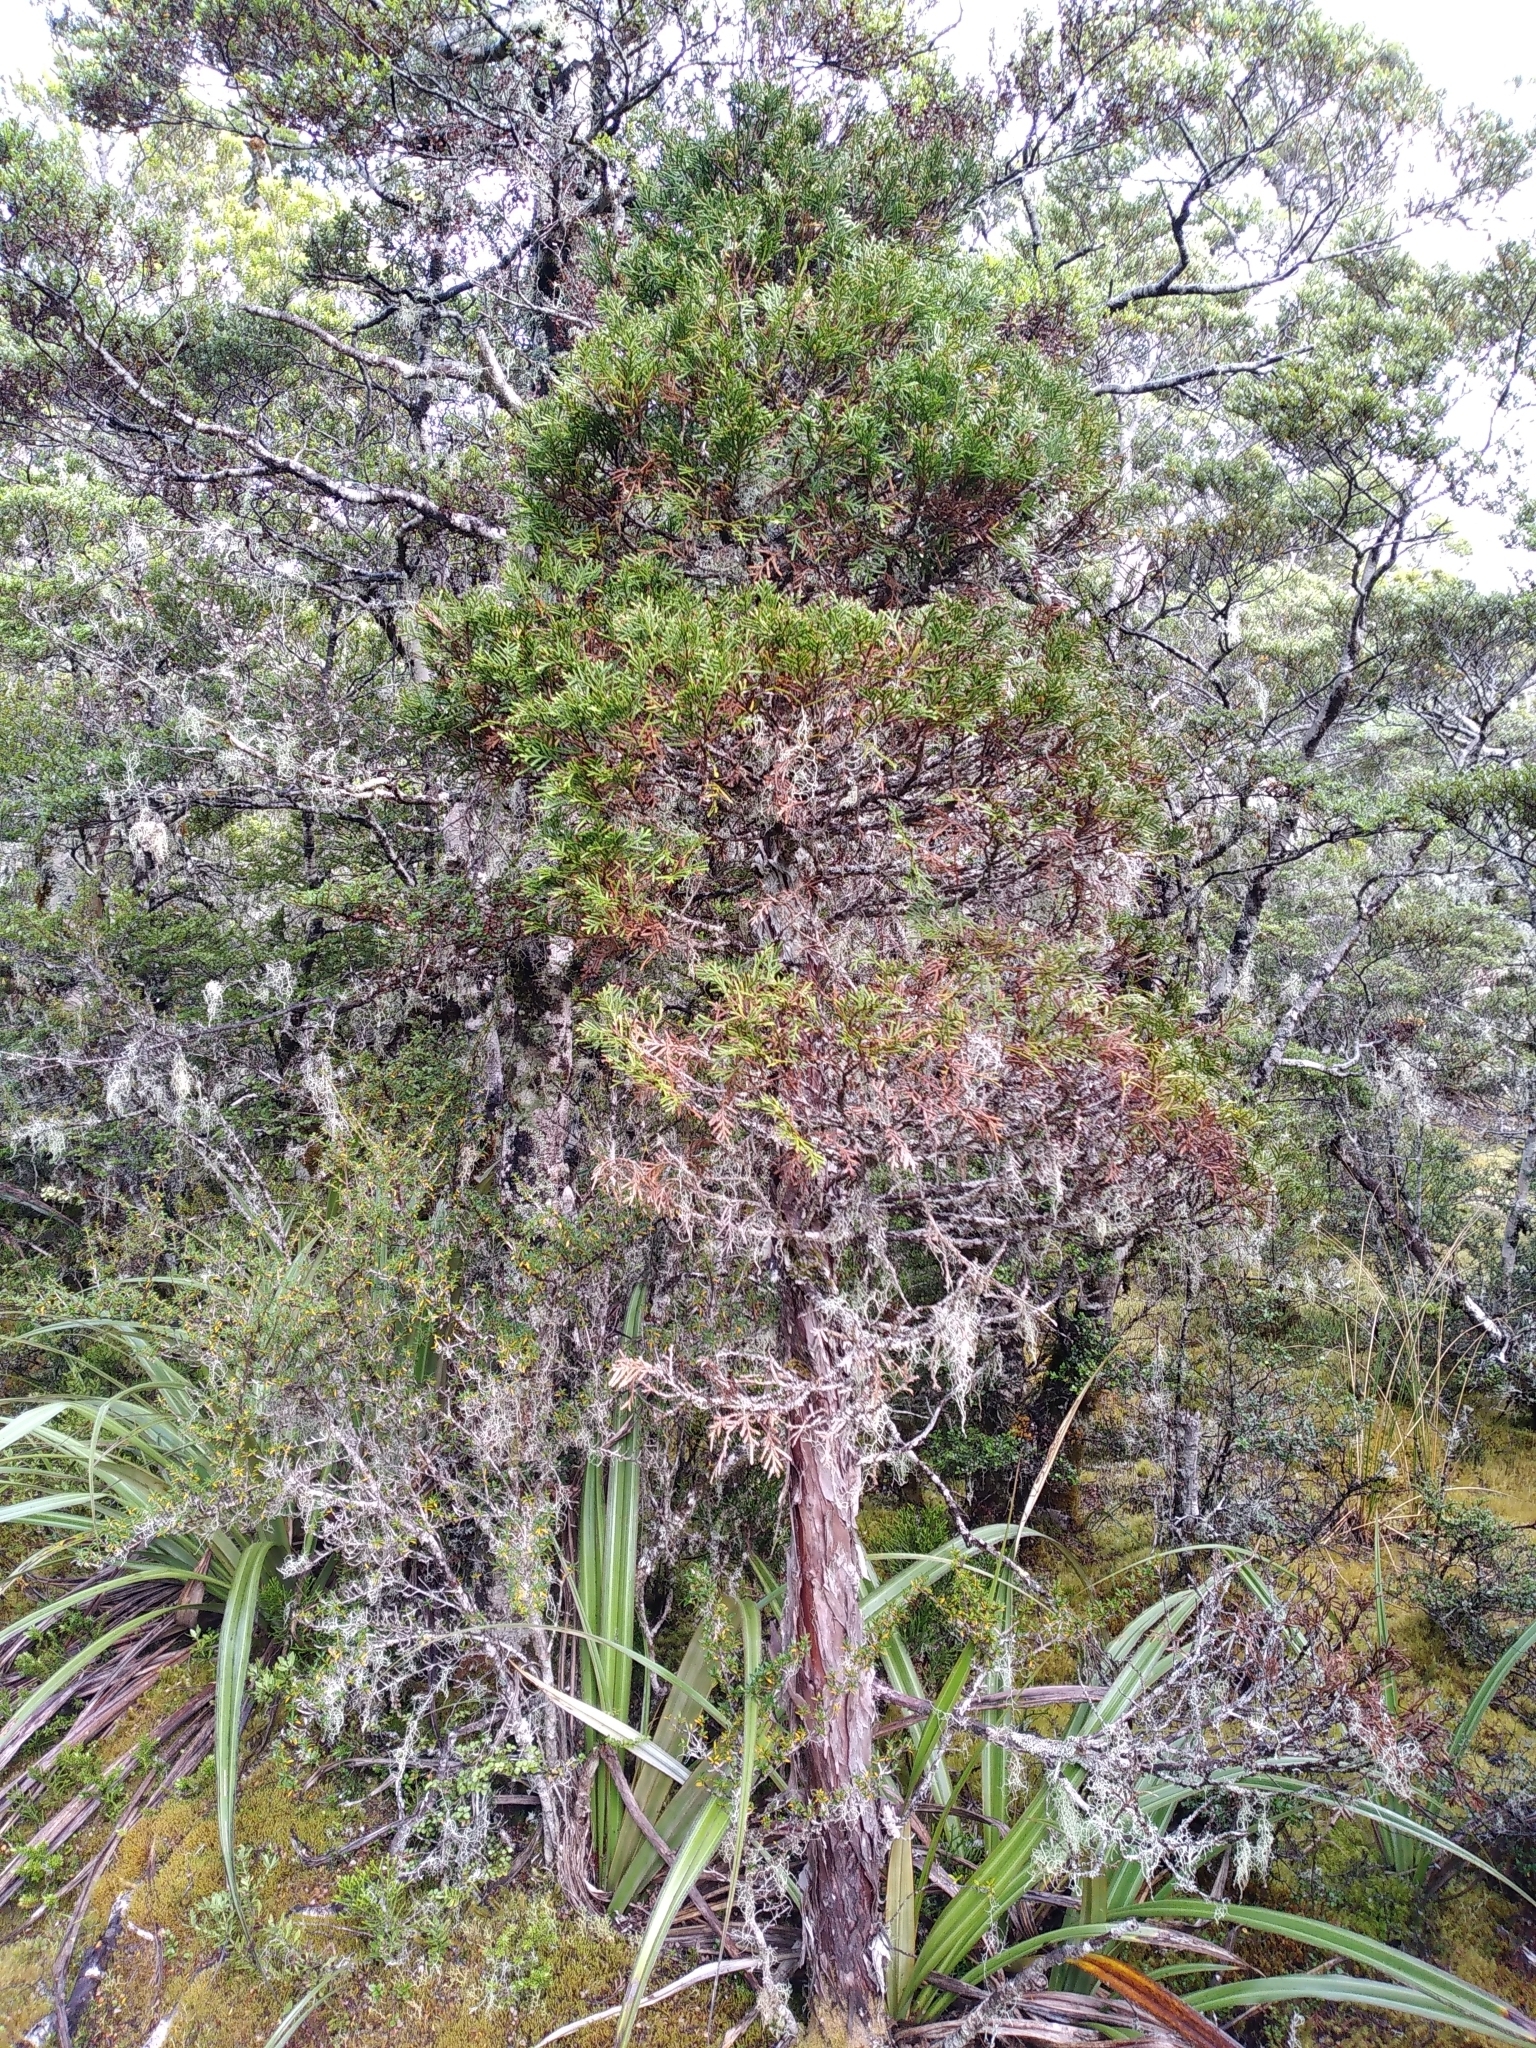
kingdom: Plantae
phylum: Tracheophyta
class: Pinopsida
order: Pinales
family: Cupressaceae
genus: Libocedrus
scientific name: Libocedrus bidwillii
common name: Cedar
